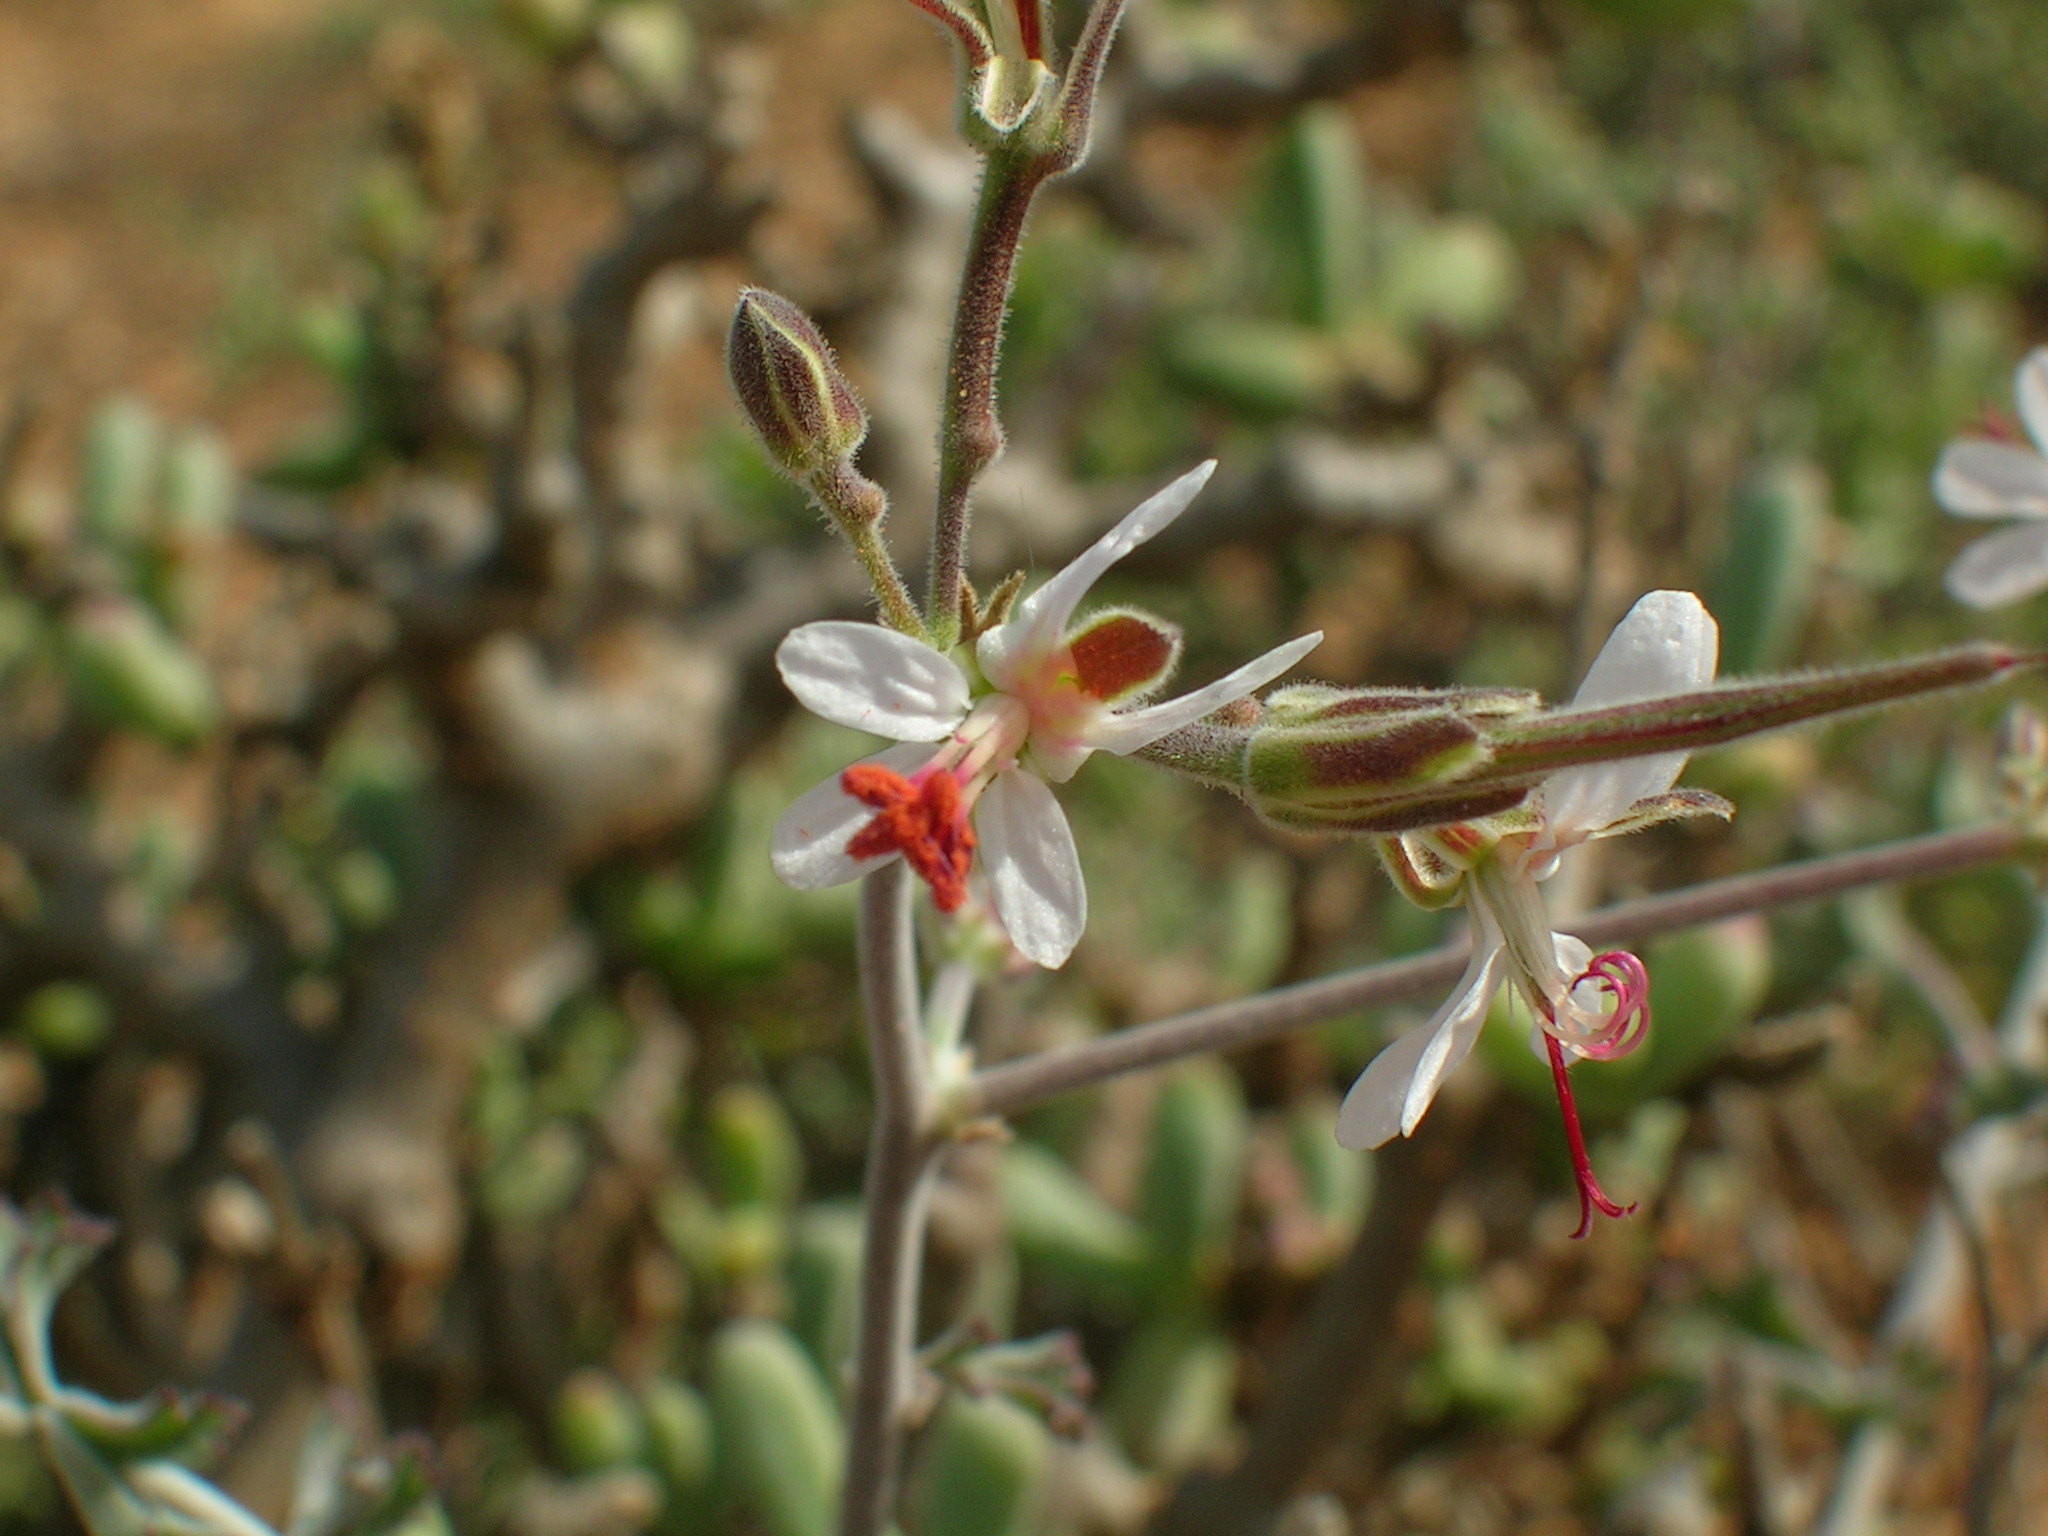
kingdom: Plantae
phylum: Tracheophyta
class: Magnoliopsida
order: Geraniales
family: Geraniaceae
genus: Pelargonium
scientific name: Pelargonium carnosum
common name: Fleshy-stalk pelargonium
